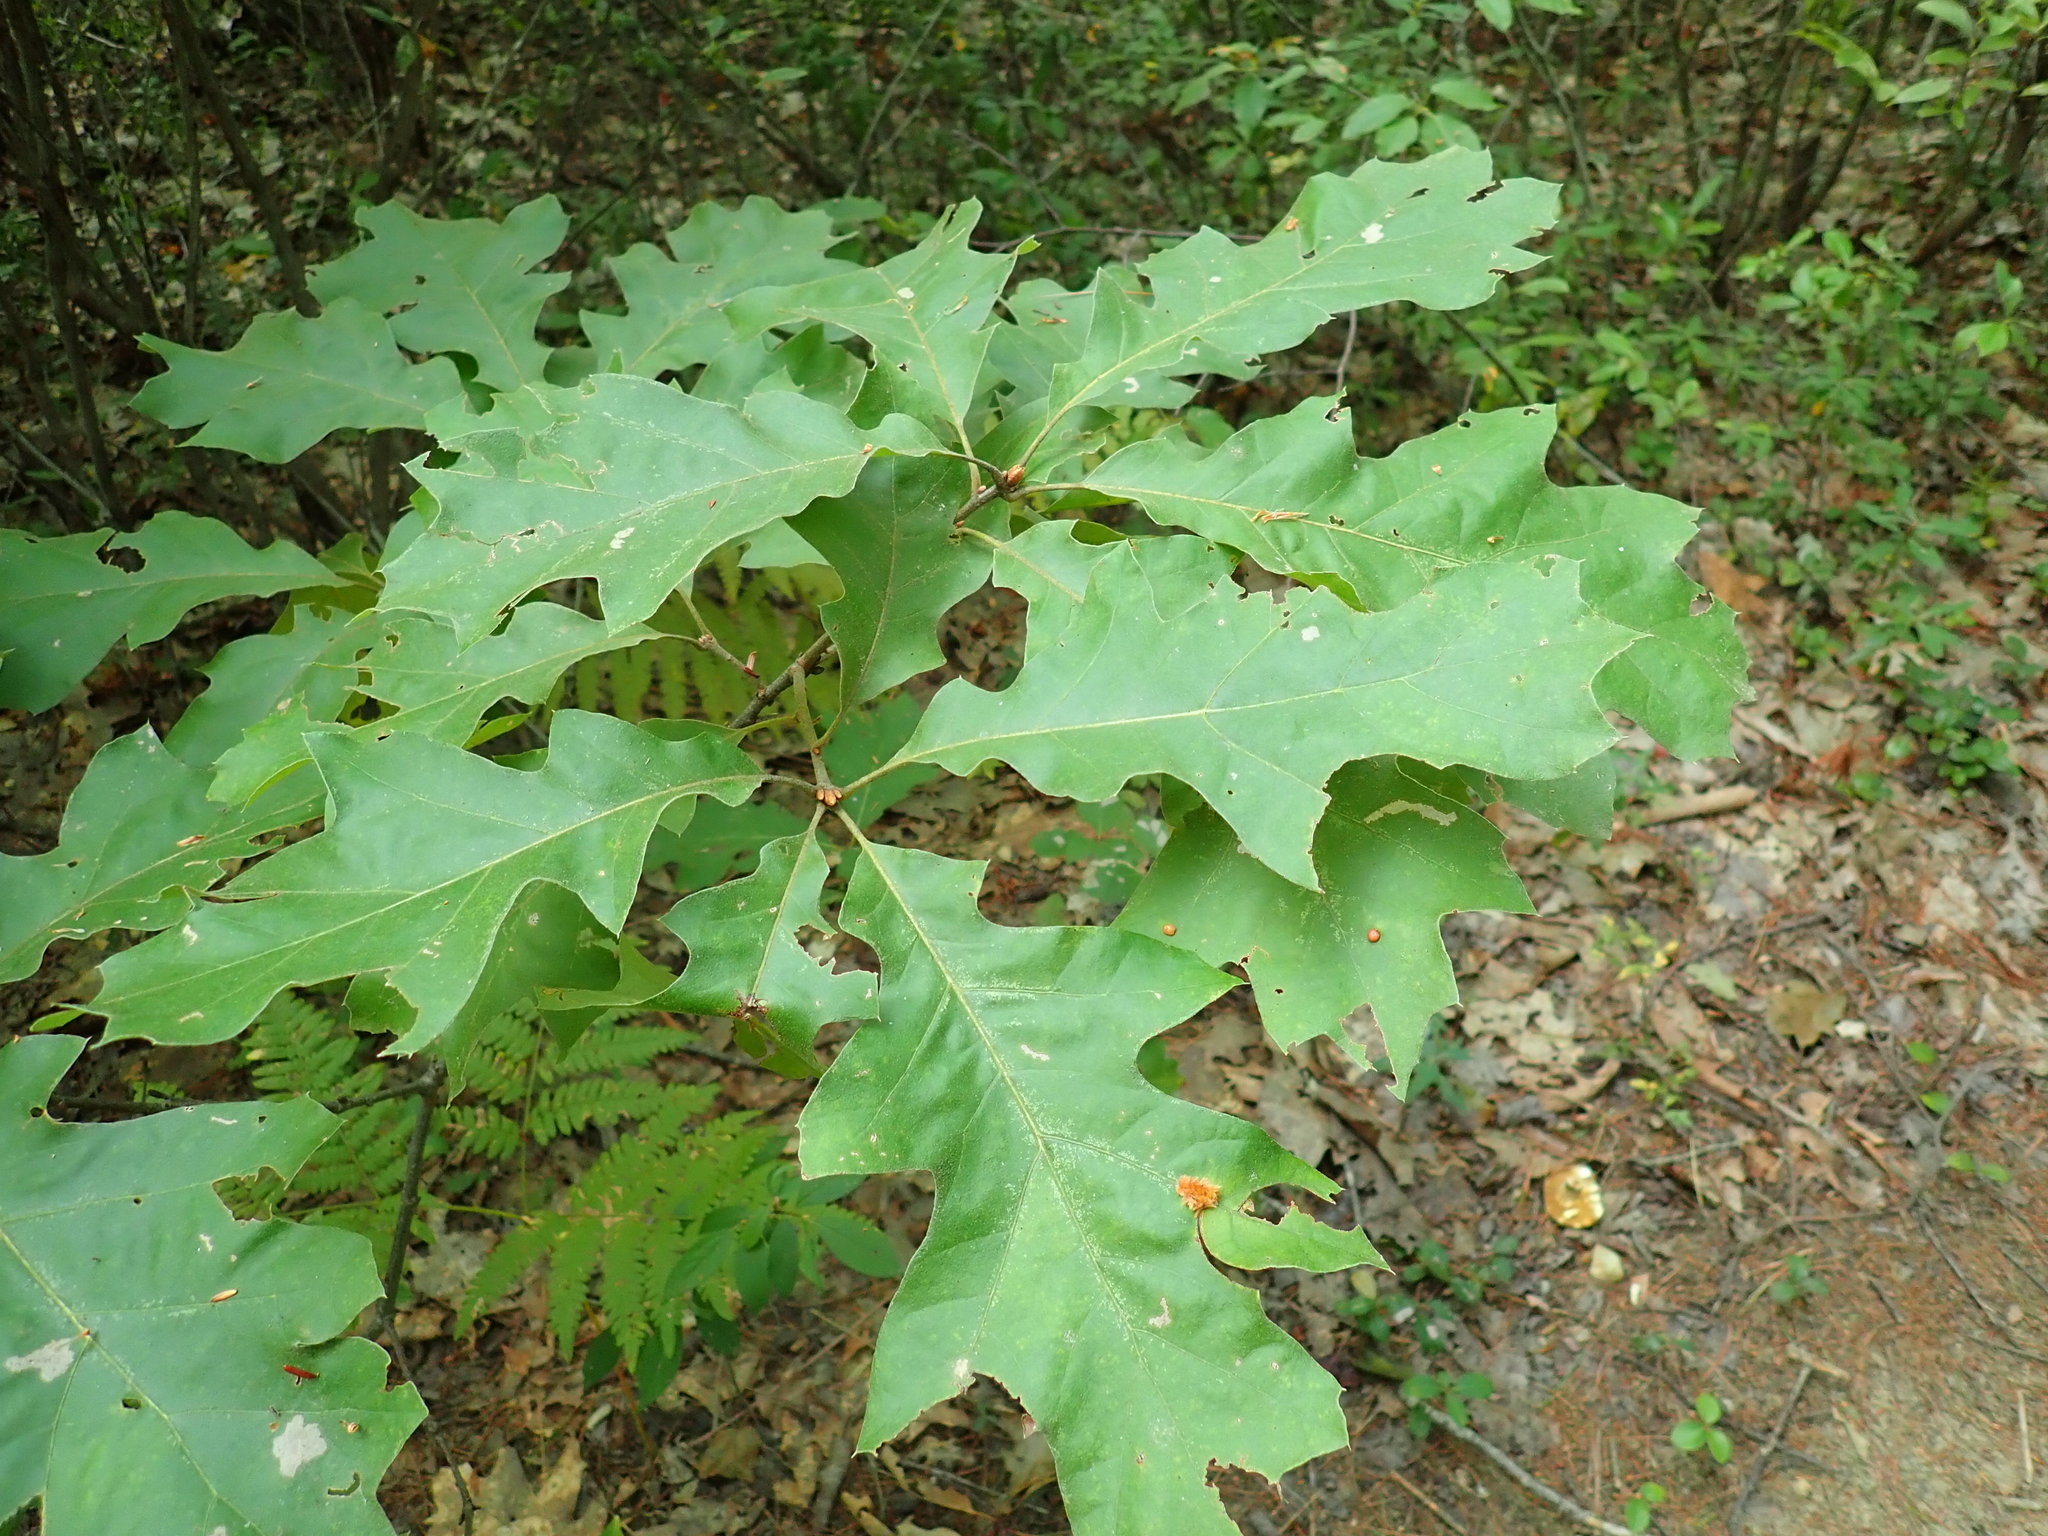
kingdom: Plantae
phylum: Tracheophyta
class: Magnoliopsida
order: Fagales
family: Fagaceae
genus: Quercus
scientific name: Quercus rubra
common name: Red oak
